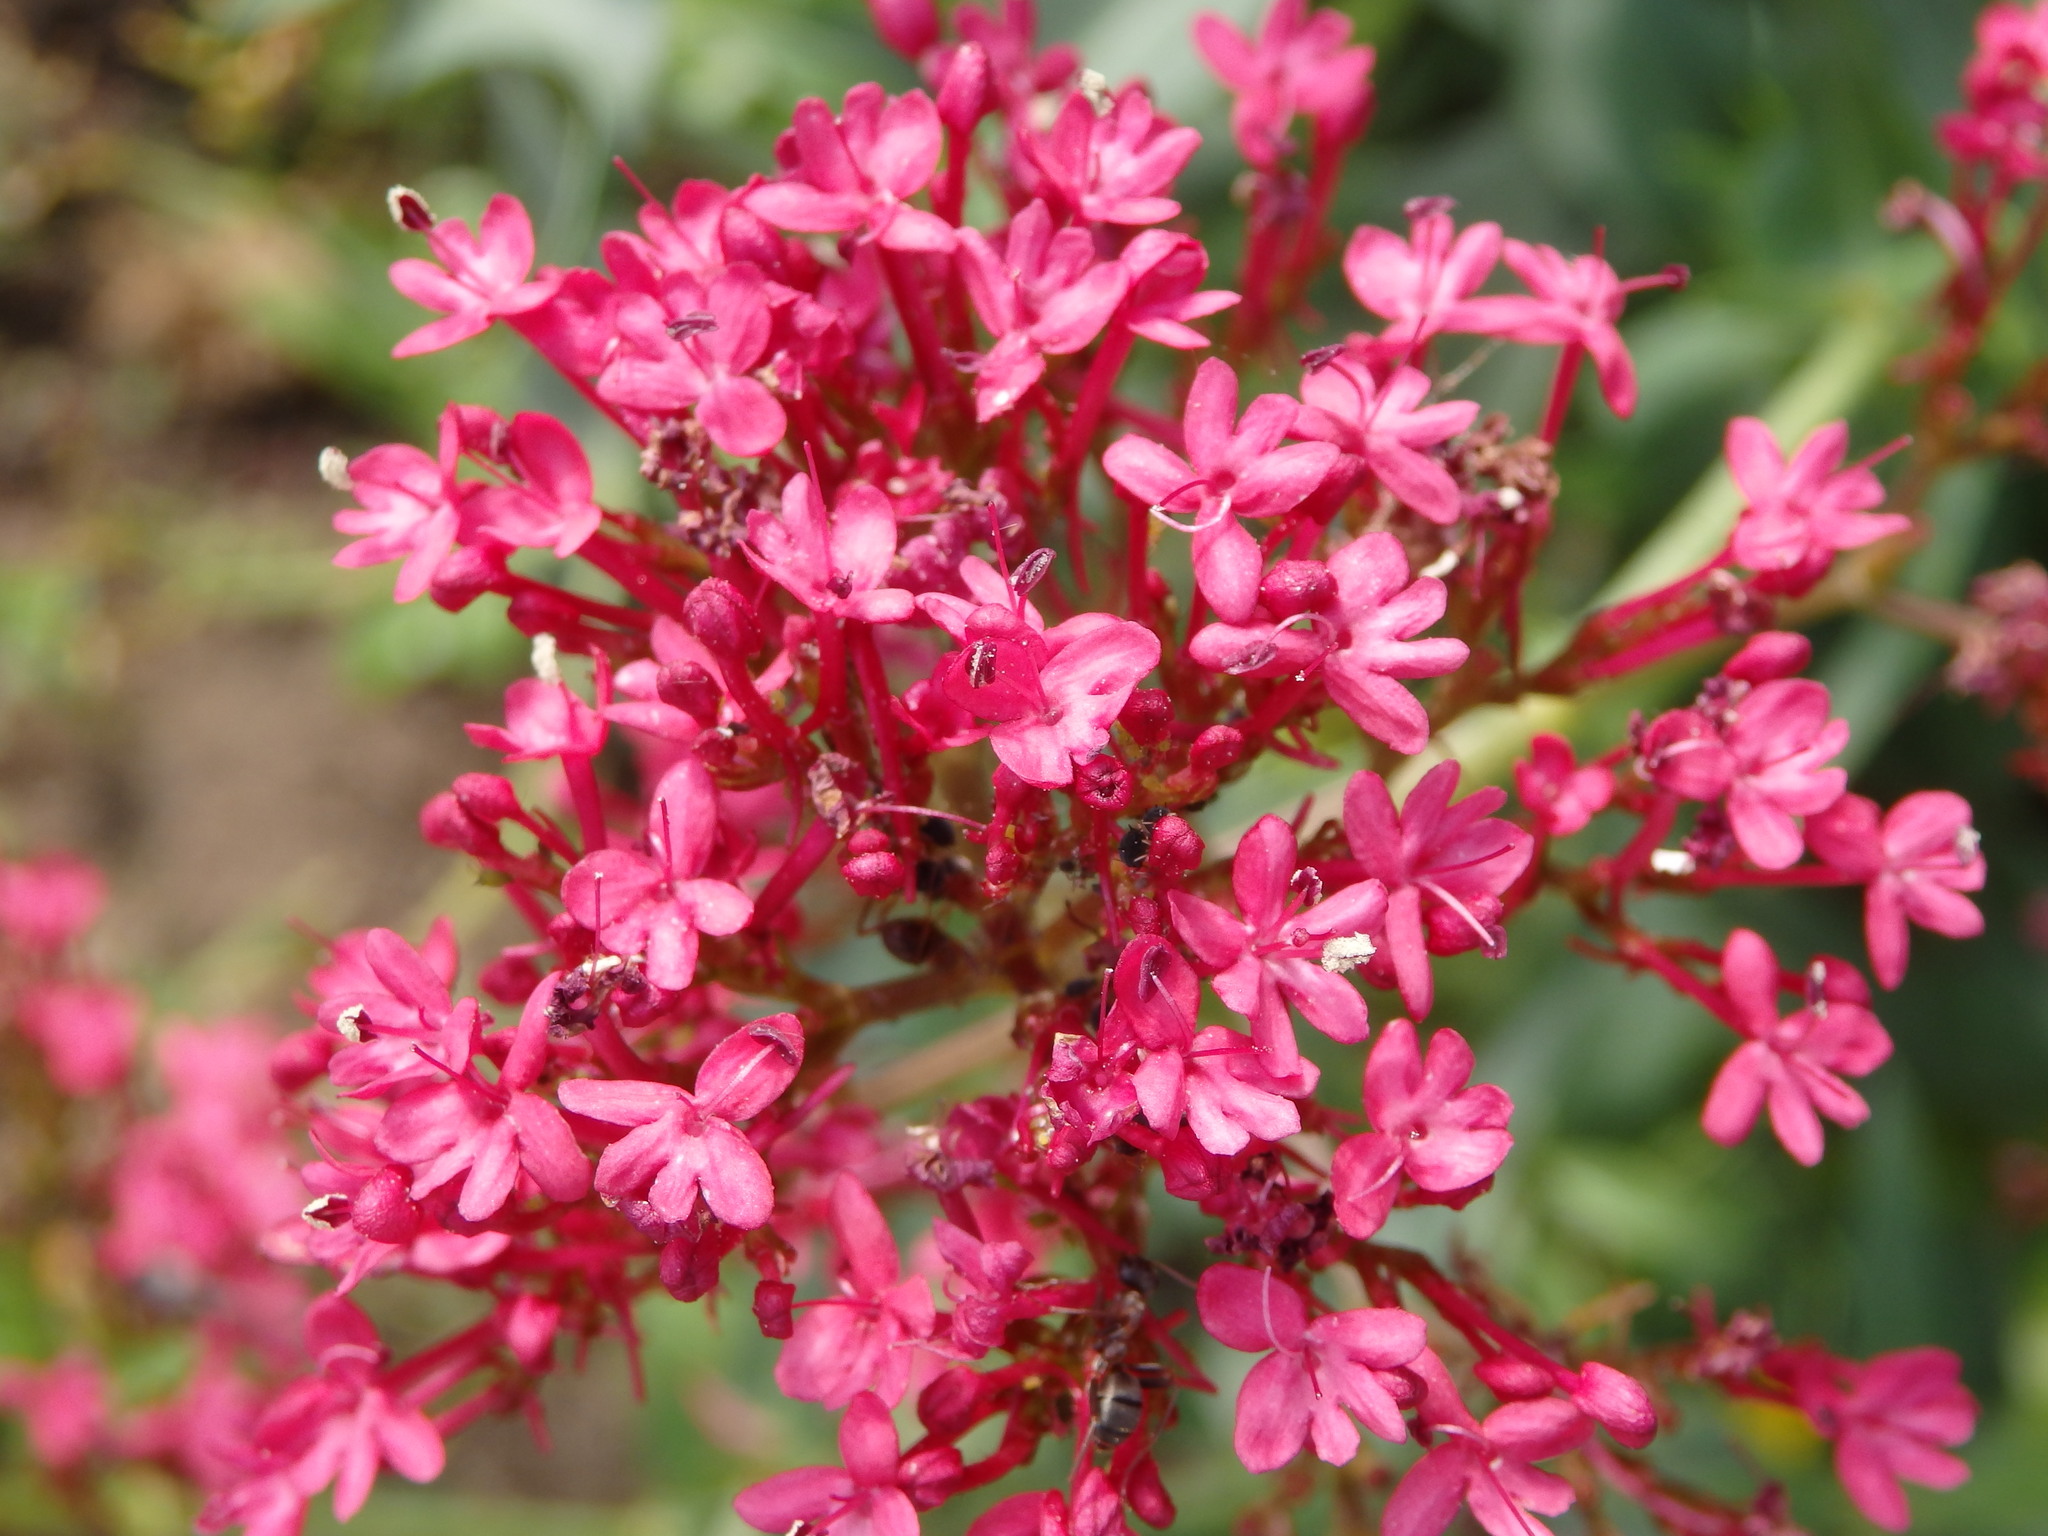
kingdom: Plantae
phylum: Tracheophyta
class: Magnoliopsida
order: Dipsacales
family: Caprifoliaceae
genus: Centranthus
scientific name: Centranthus ruber
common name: Red valerian
